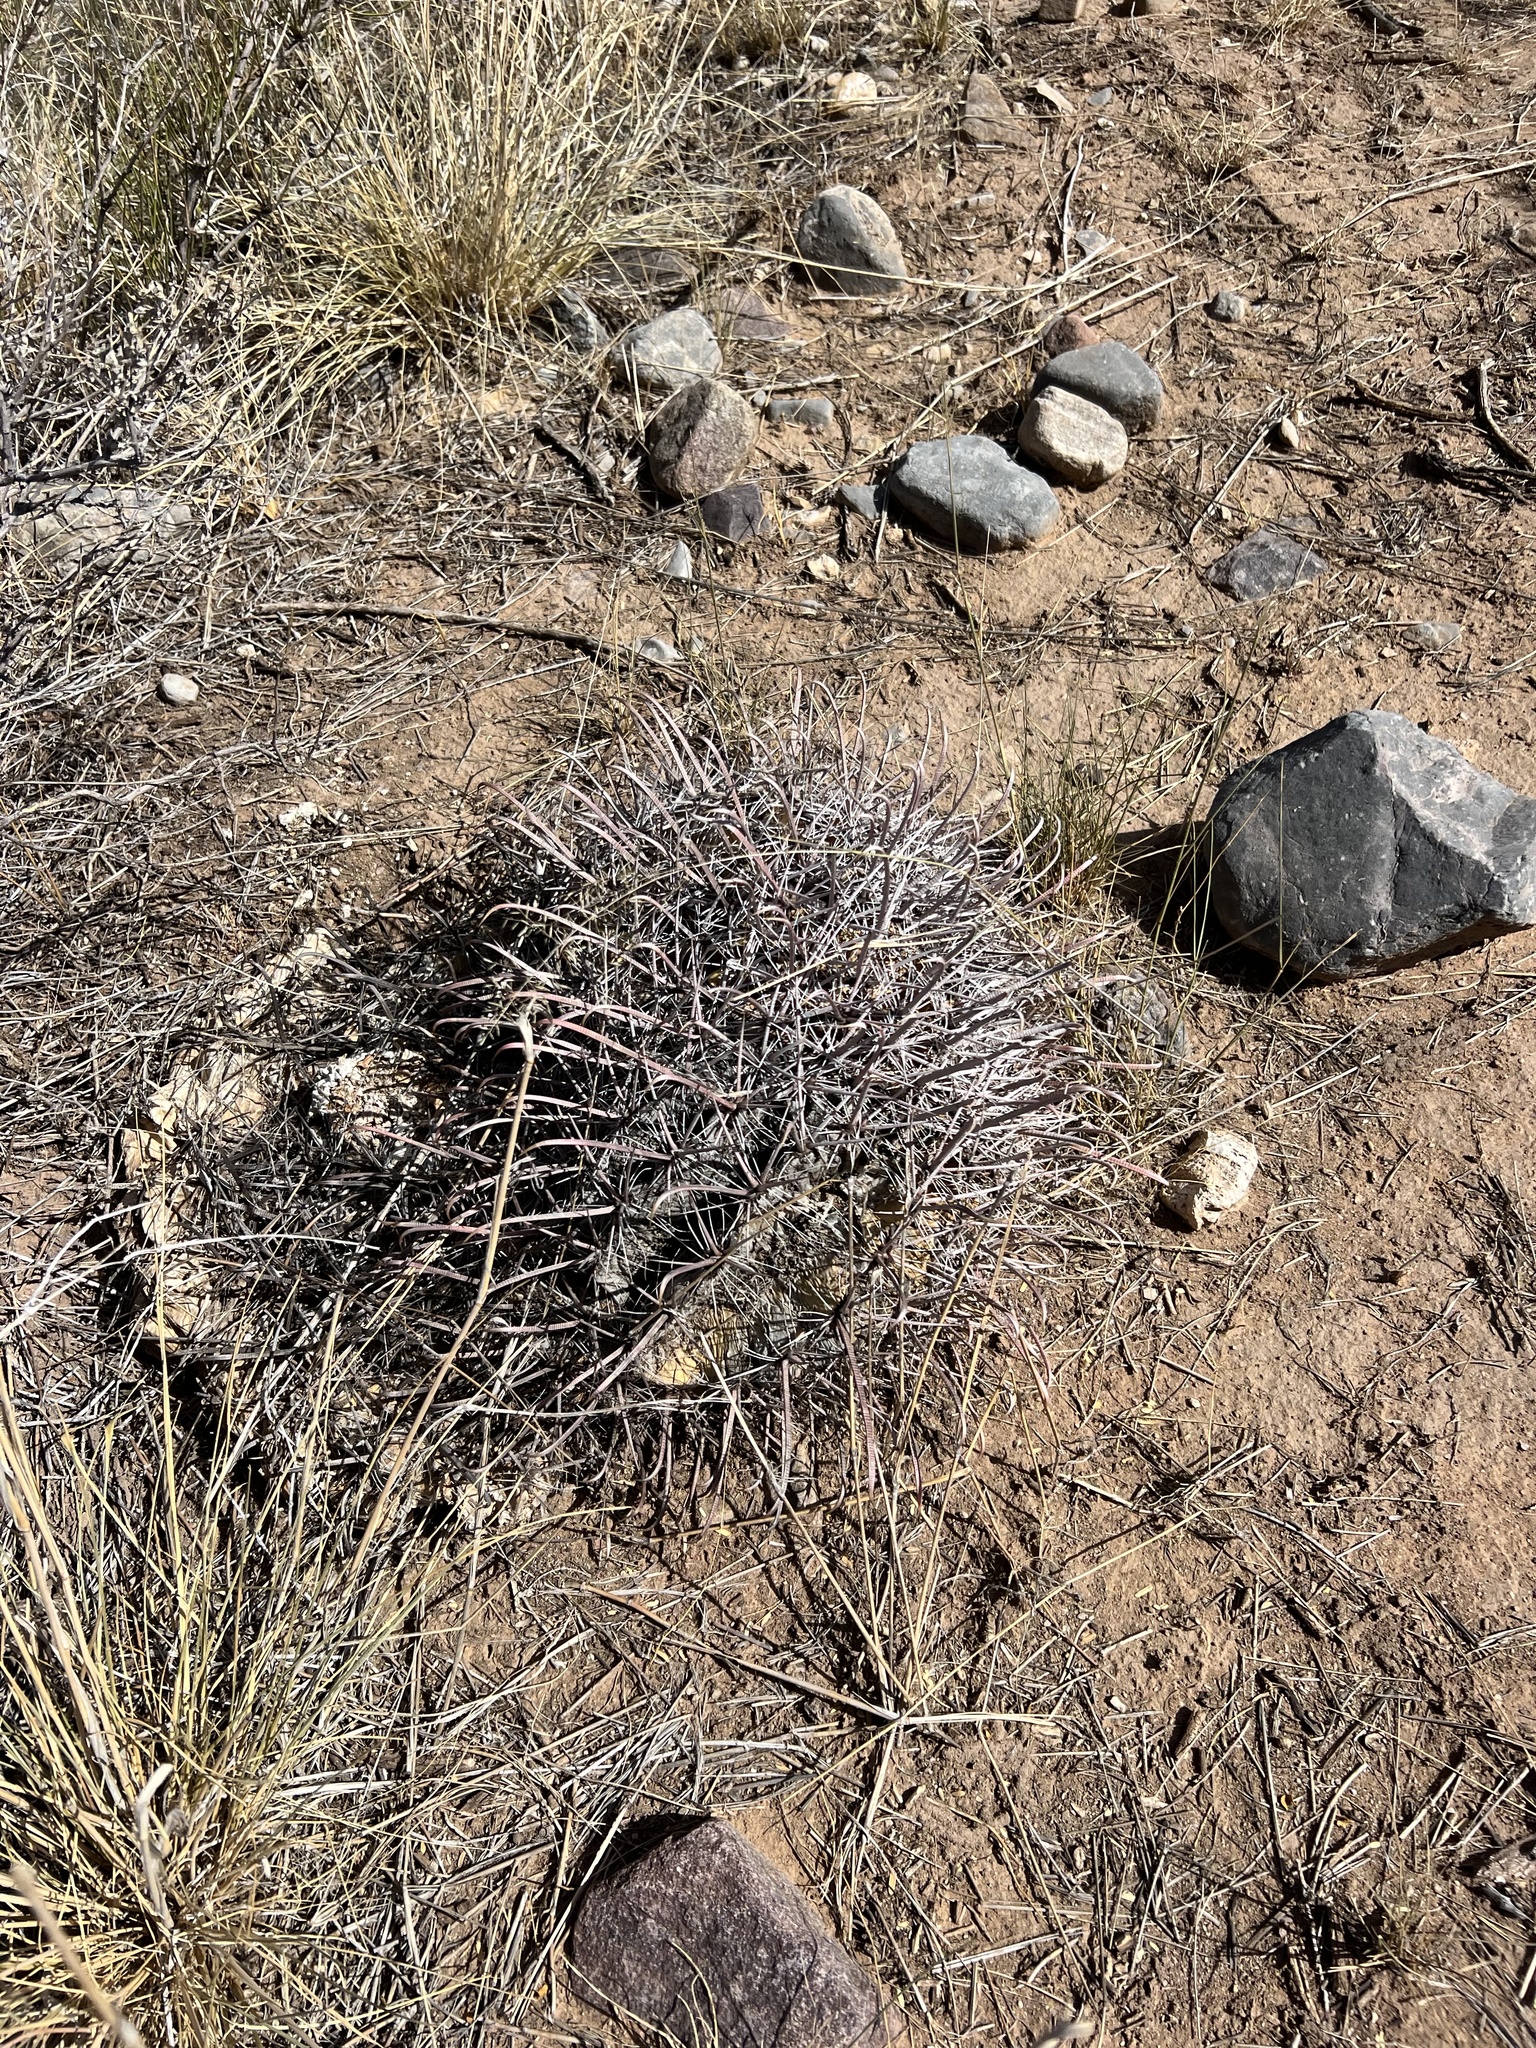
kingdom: Plantae
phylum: Tracheophyta
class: Magnoliopsida
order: Caryophyllales
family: Cactaceae
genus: Ferocactus
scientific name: Ferocactus wislizeni
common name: Candy barrel cactus
